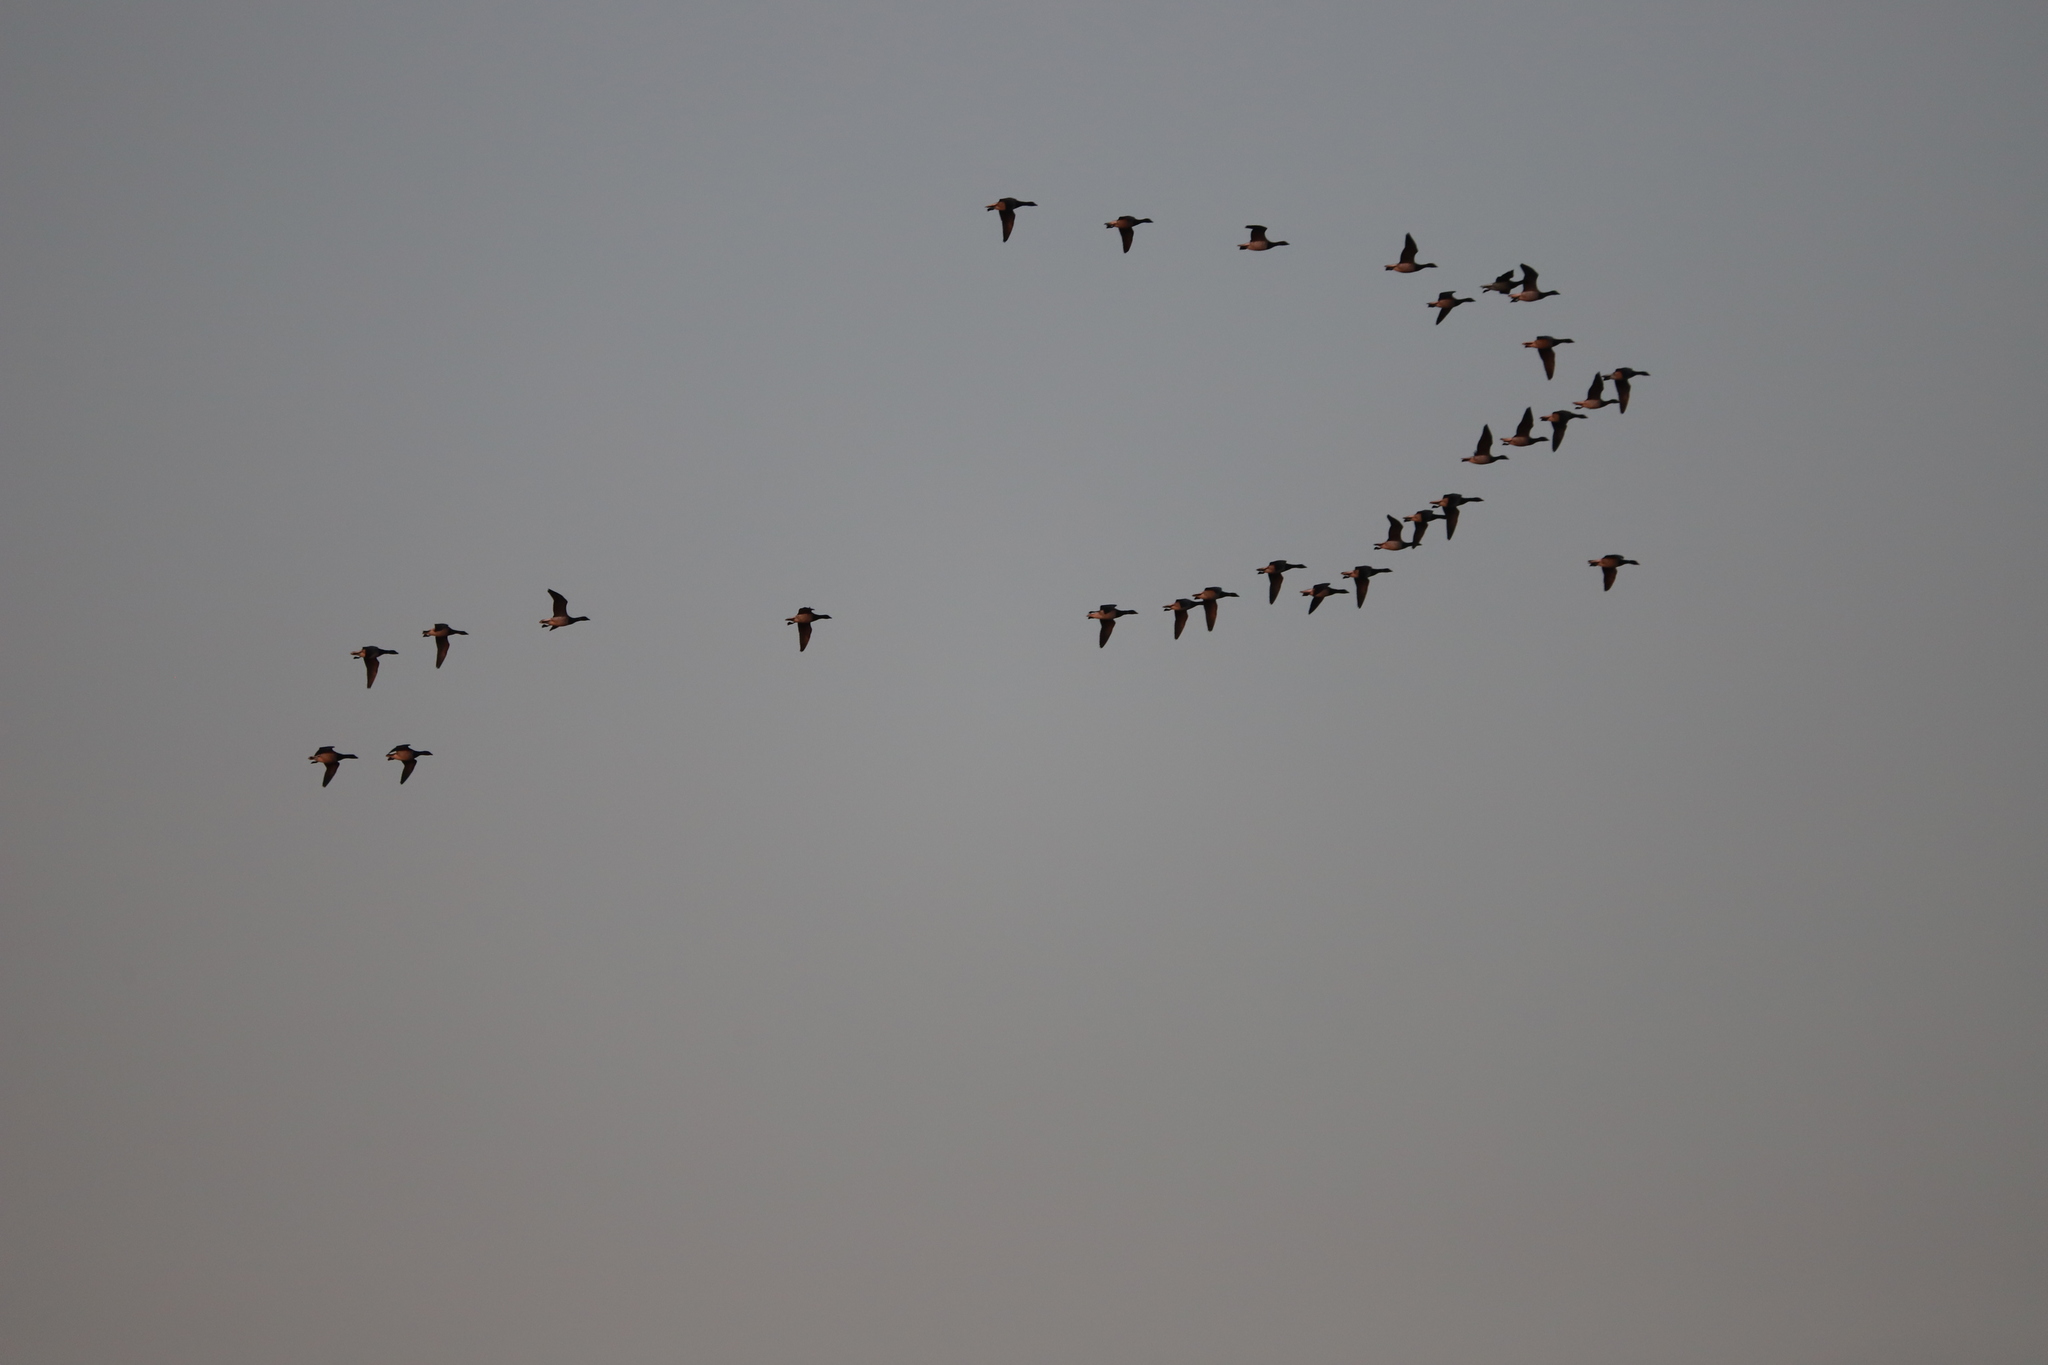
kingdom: Animalia
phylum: Chordata
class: Aves
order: Anseriformes
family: Anatidae
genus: Branta
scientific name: Branta bernicla
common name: Brant goose
